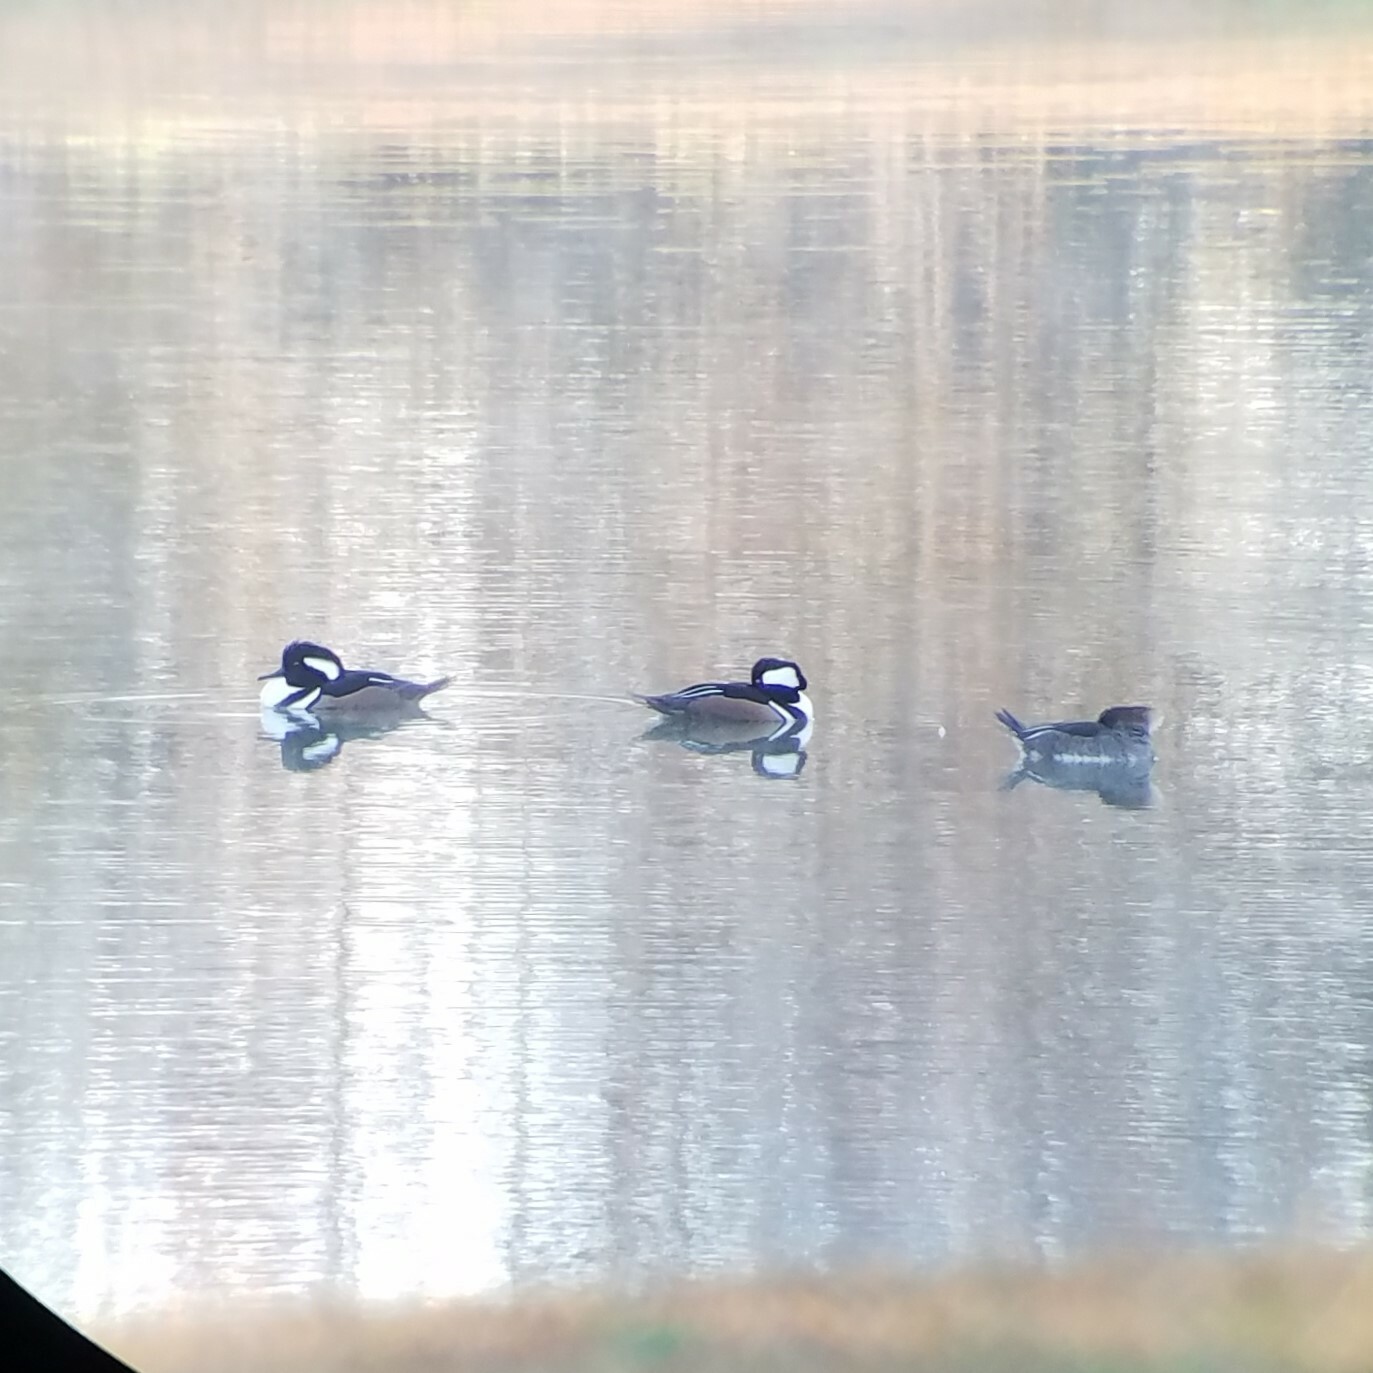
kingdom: Animalia
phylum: Chordata
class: Aves
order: Anseriformes
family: Anatidae
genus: Lophodytes
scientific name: Lophodytes cucullatus
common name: Hooded merganser
